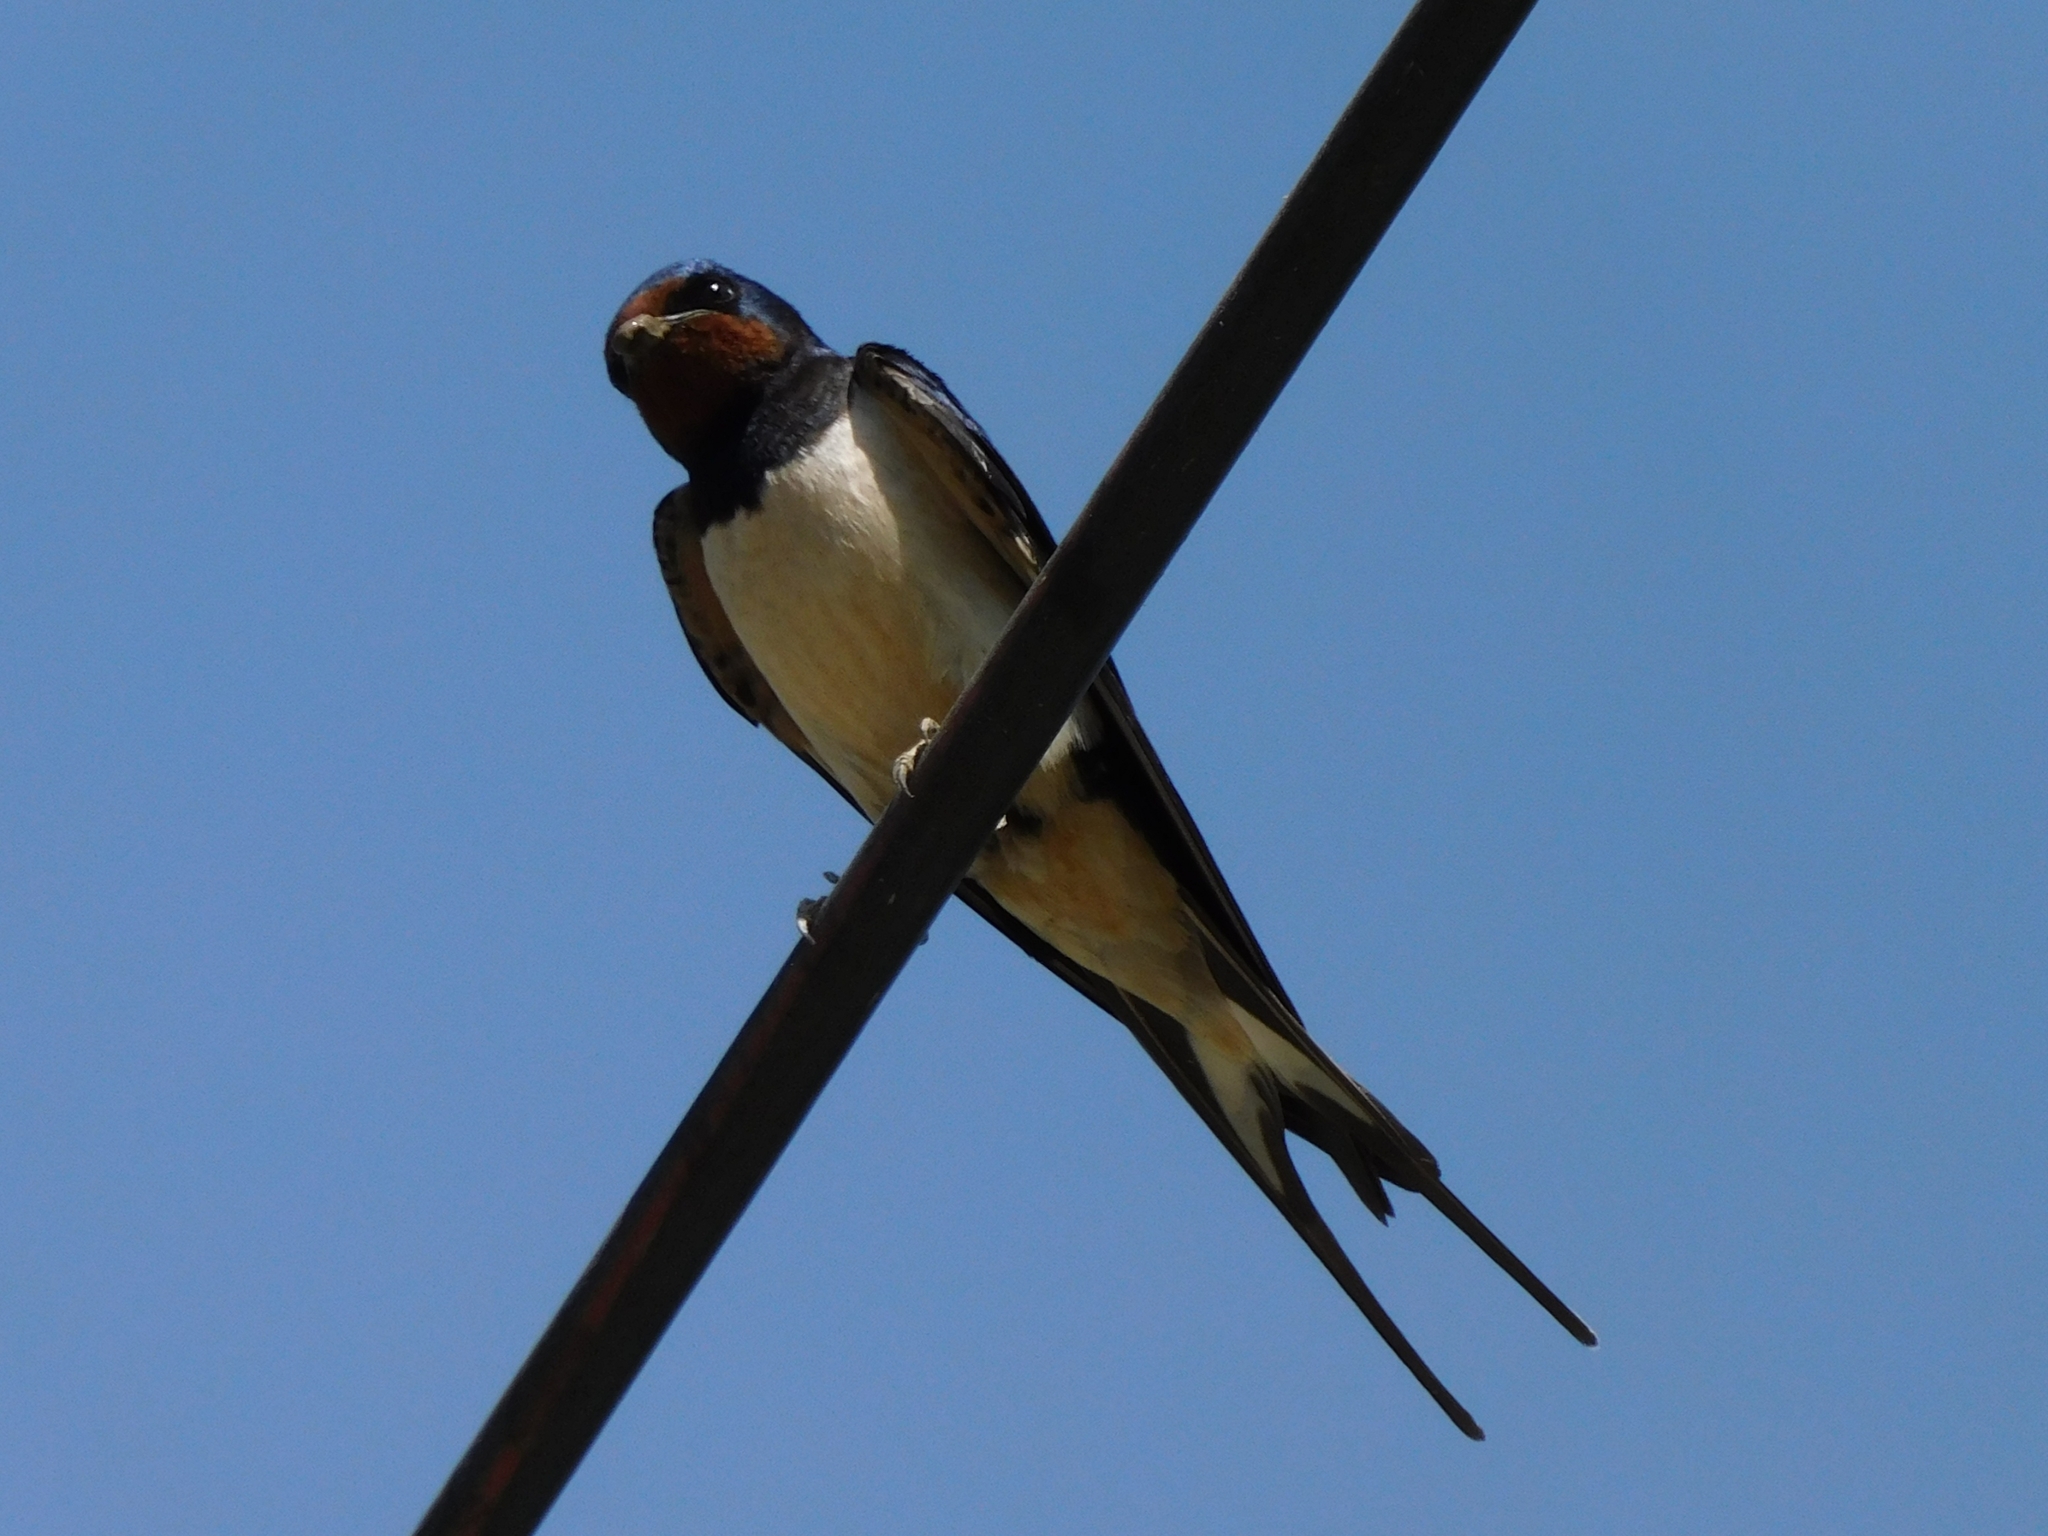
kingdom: Animalia
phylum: Chordata
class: Aves
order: Passeriformes
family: Hirundinidae
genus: Hirundo
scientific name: Hirundo rustica
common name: Barn swallow
